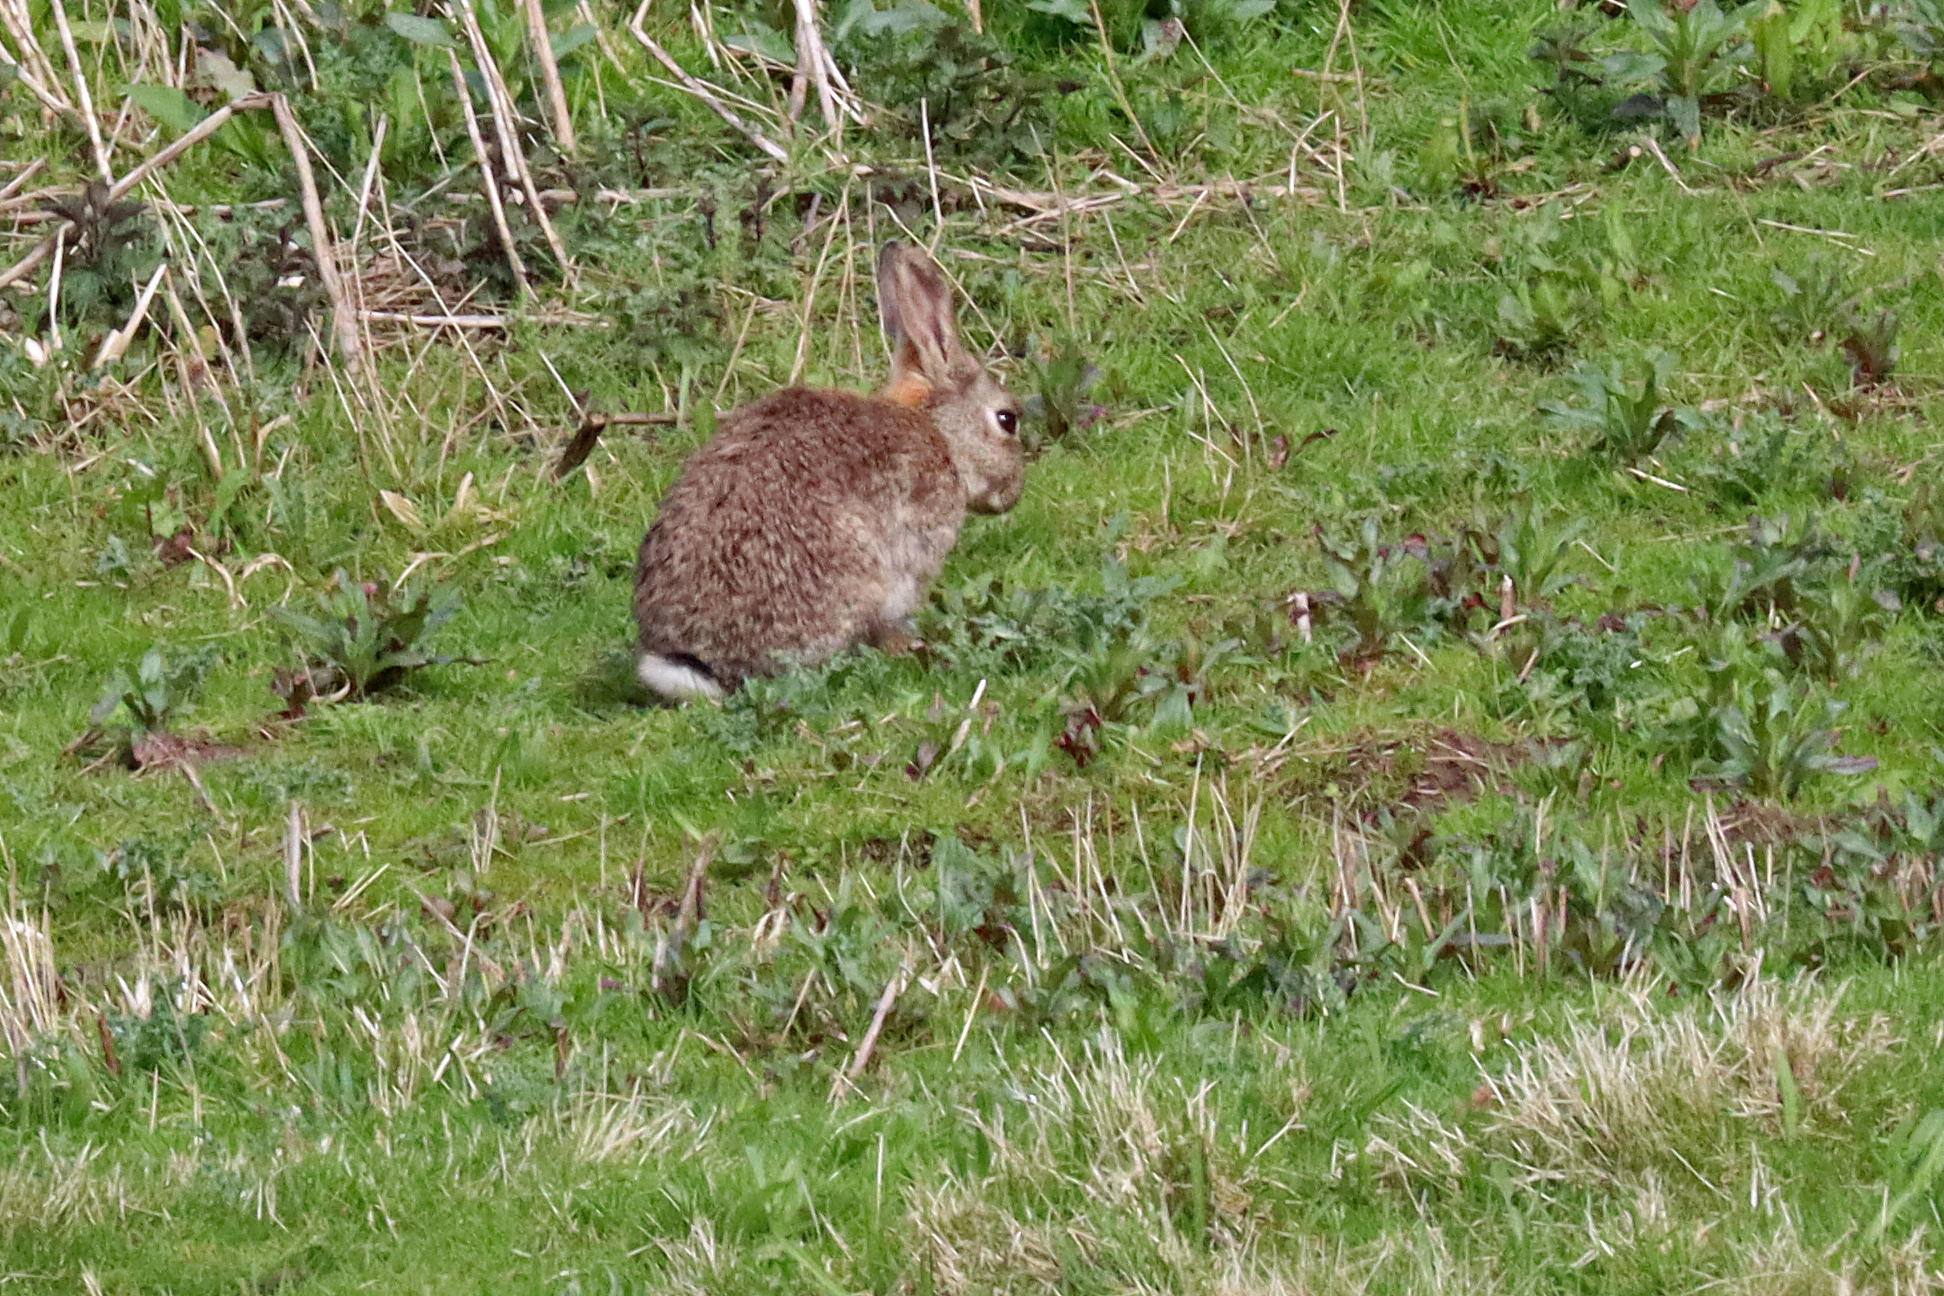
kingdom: Animalia
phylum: Chordata
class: Mammalia
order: Lagomorpha
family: Leporidae
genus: Oryctolagus
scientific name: Oryctolagus cuniculus
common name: European rabbit
